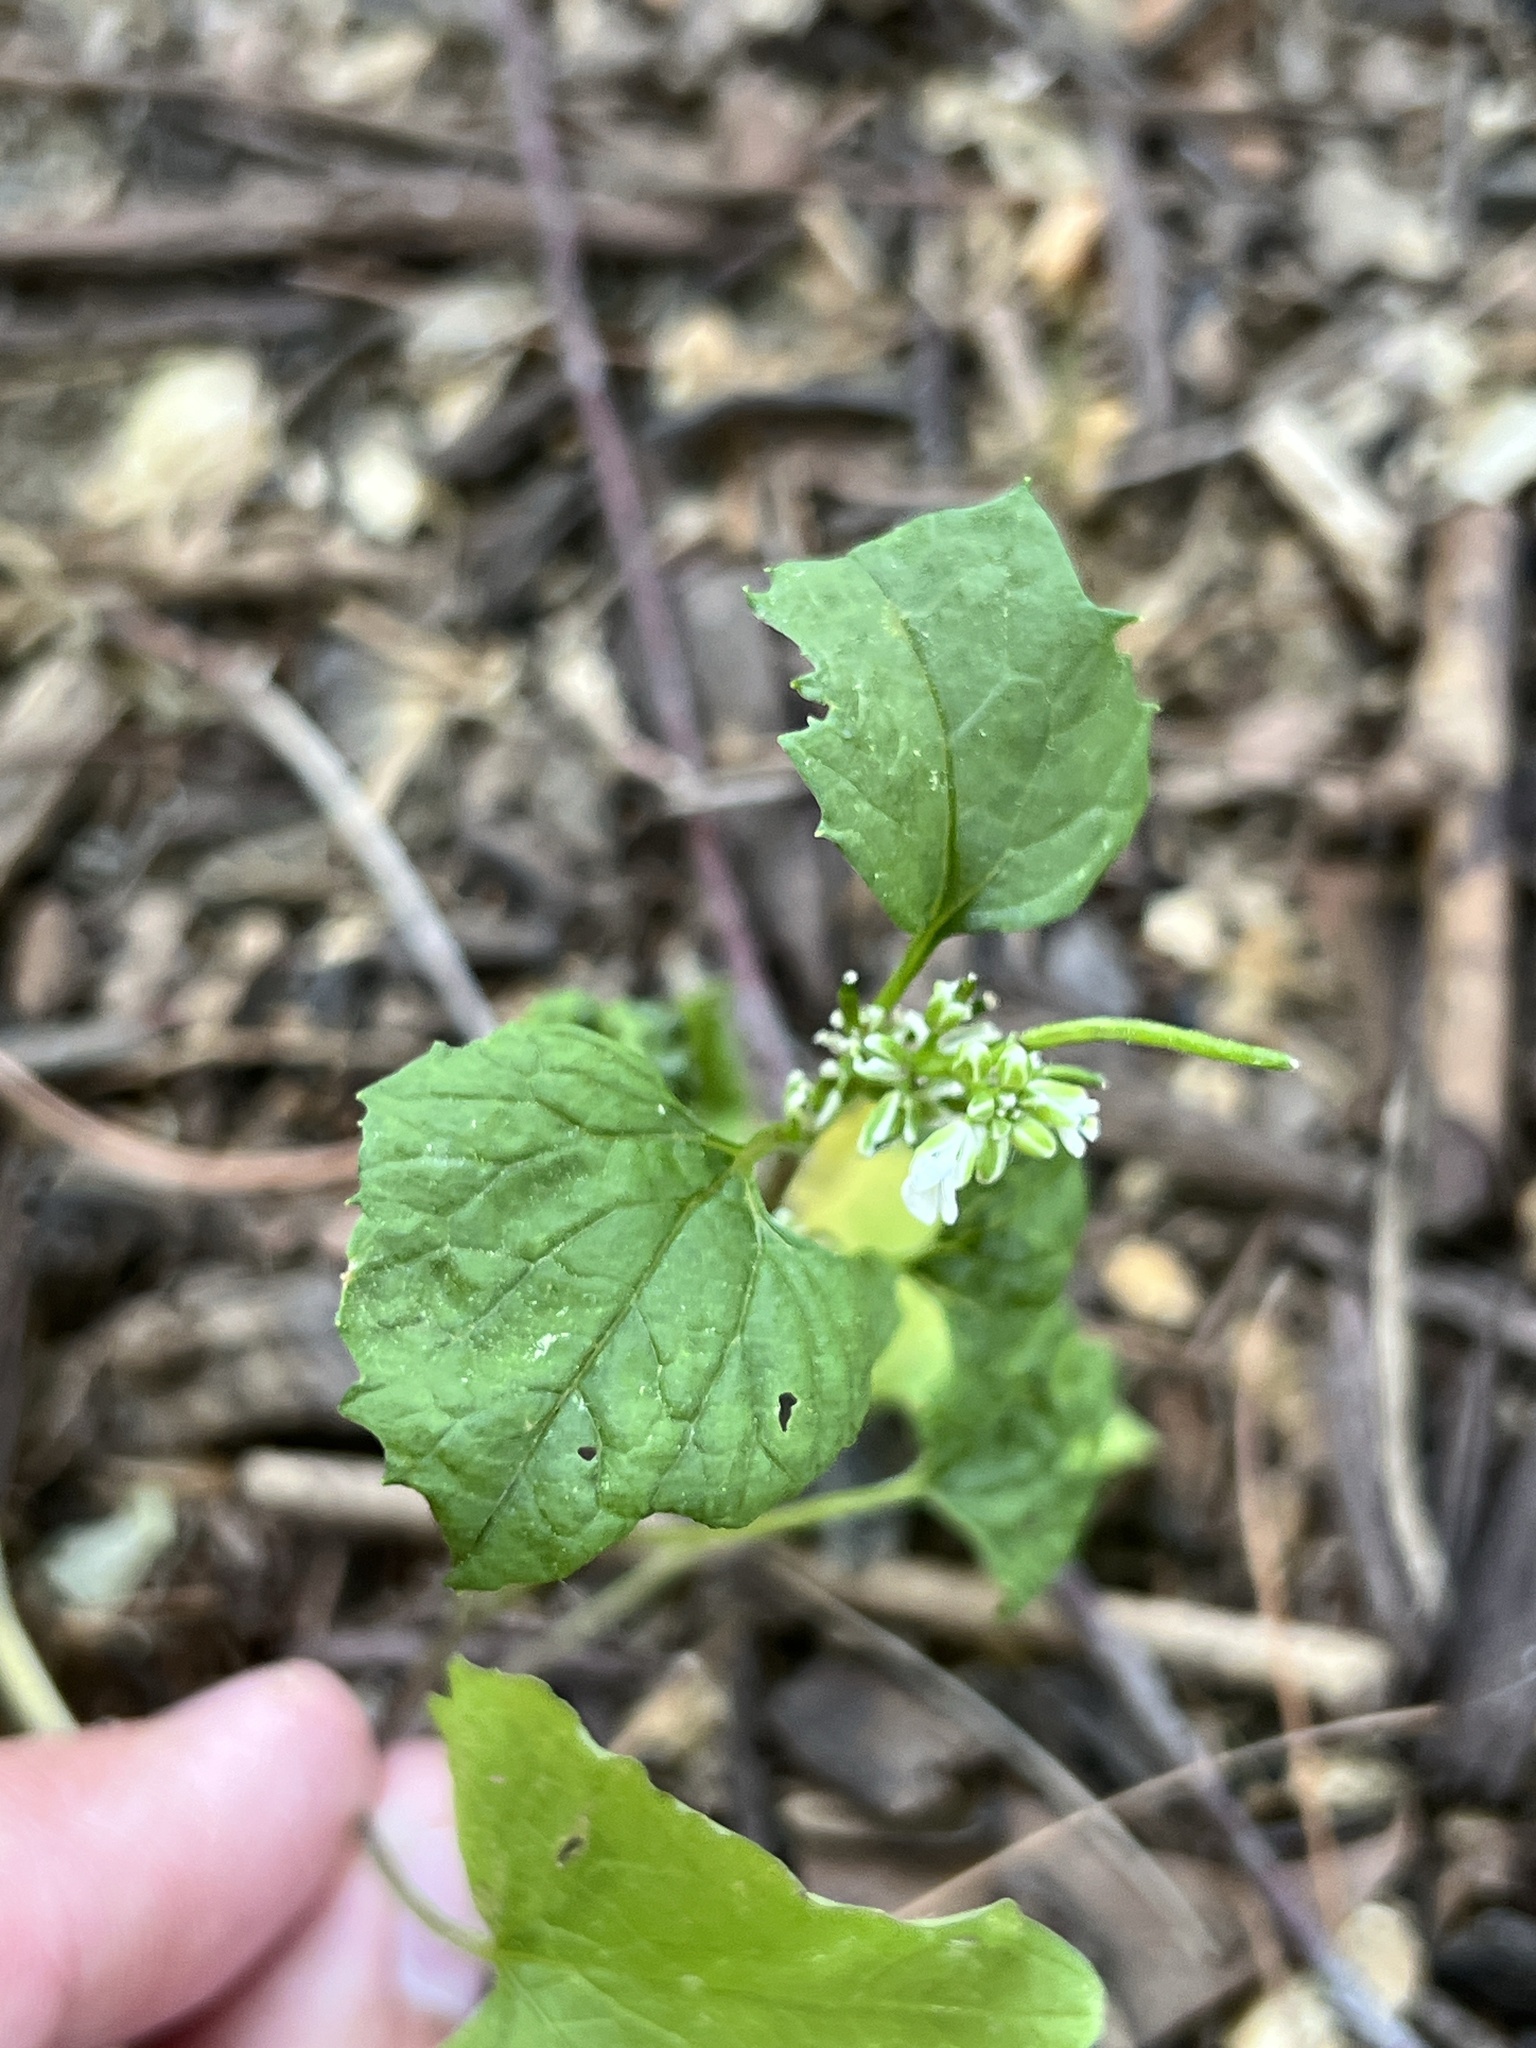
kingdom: Plantae
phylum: Tracheophyta
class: Magnoliopsida
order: Brassicales
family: Brassicaceae
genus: Alliaria
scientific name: Alliaria petiolata
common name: Garlic mustard
